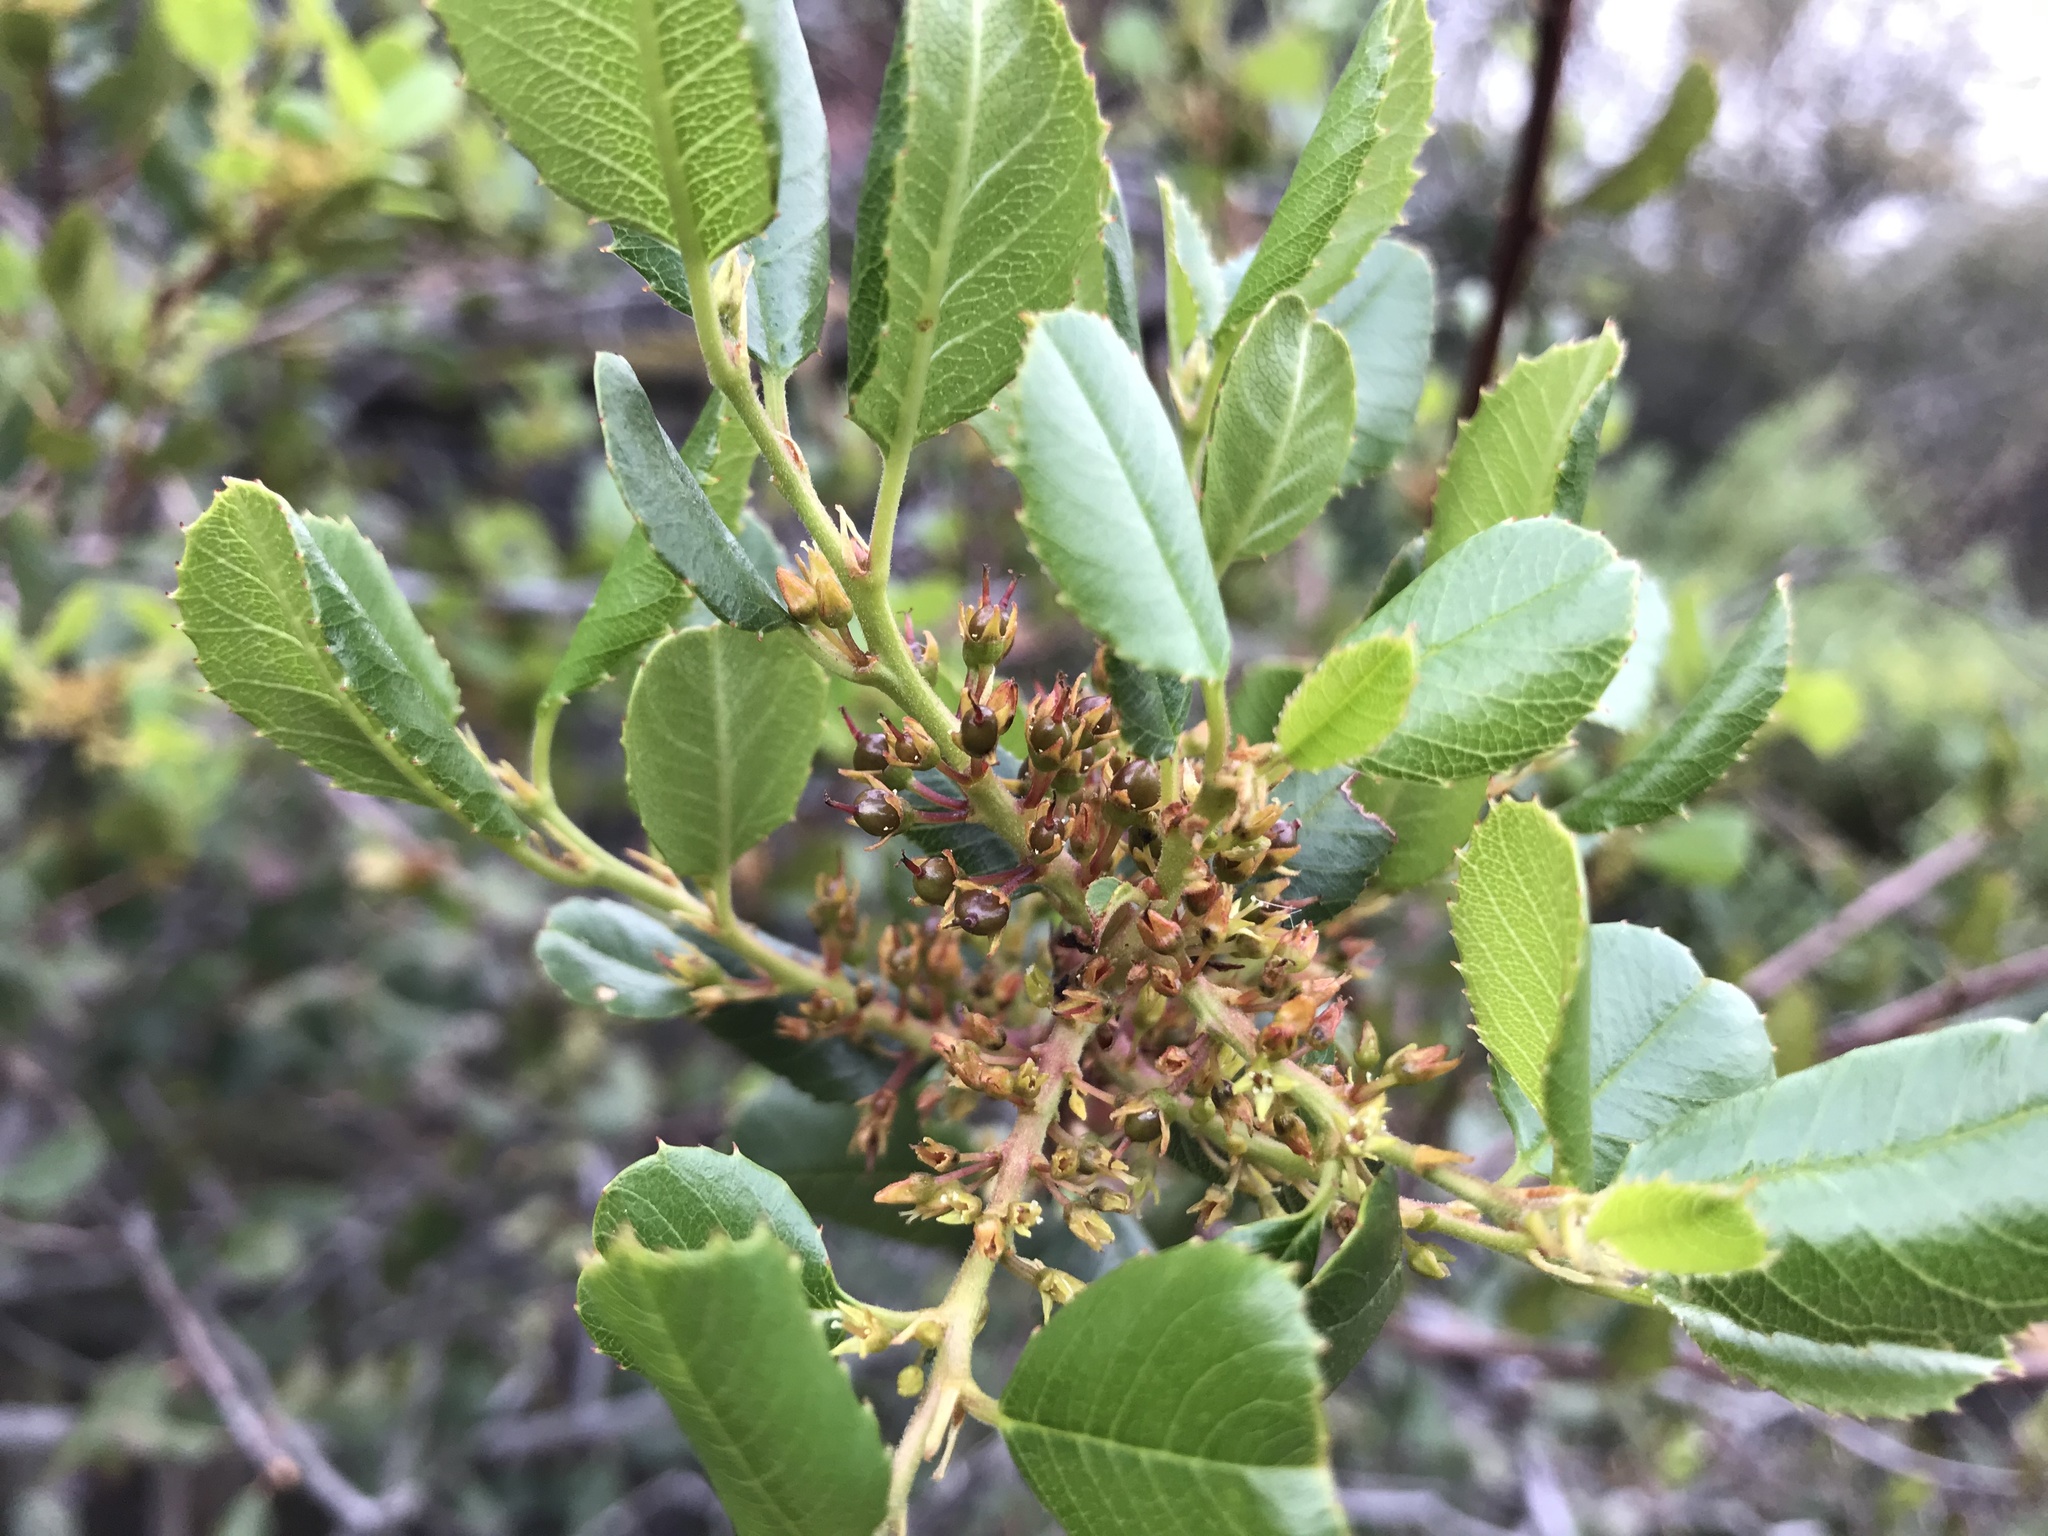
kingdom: Plantae
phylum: Tracheophyta
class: Magnoliopsida
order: Rosales
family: Rhamnaceae
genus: Endotropis
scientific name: Endotropis crocea
